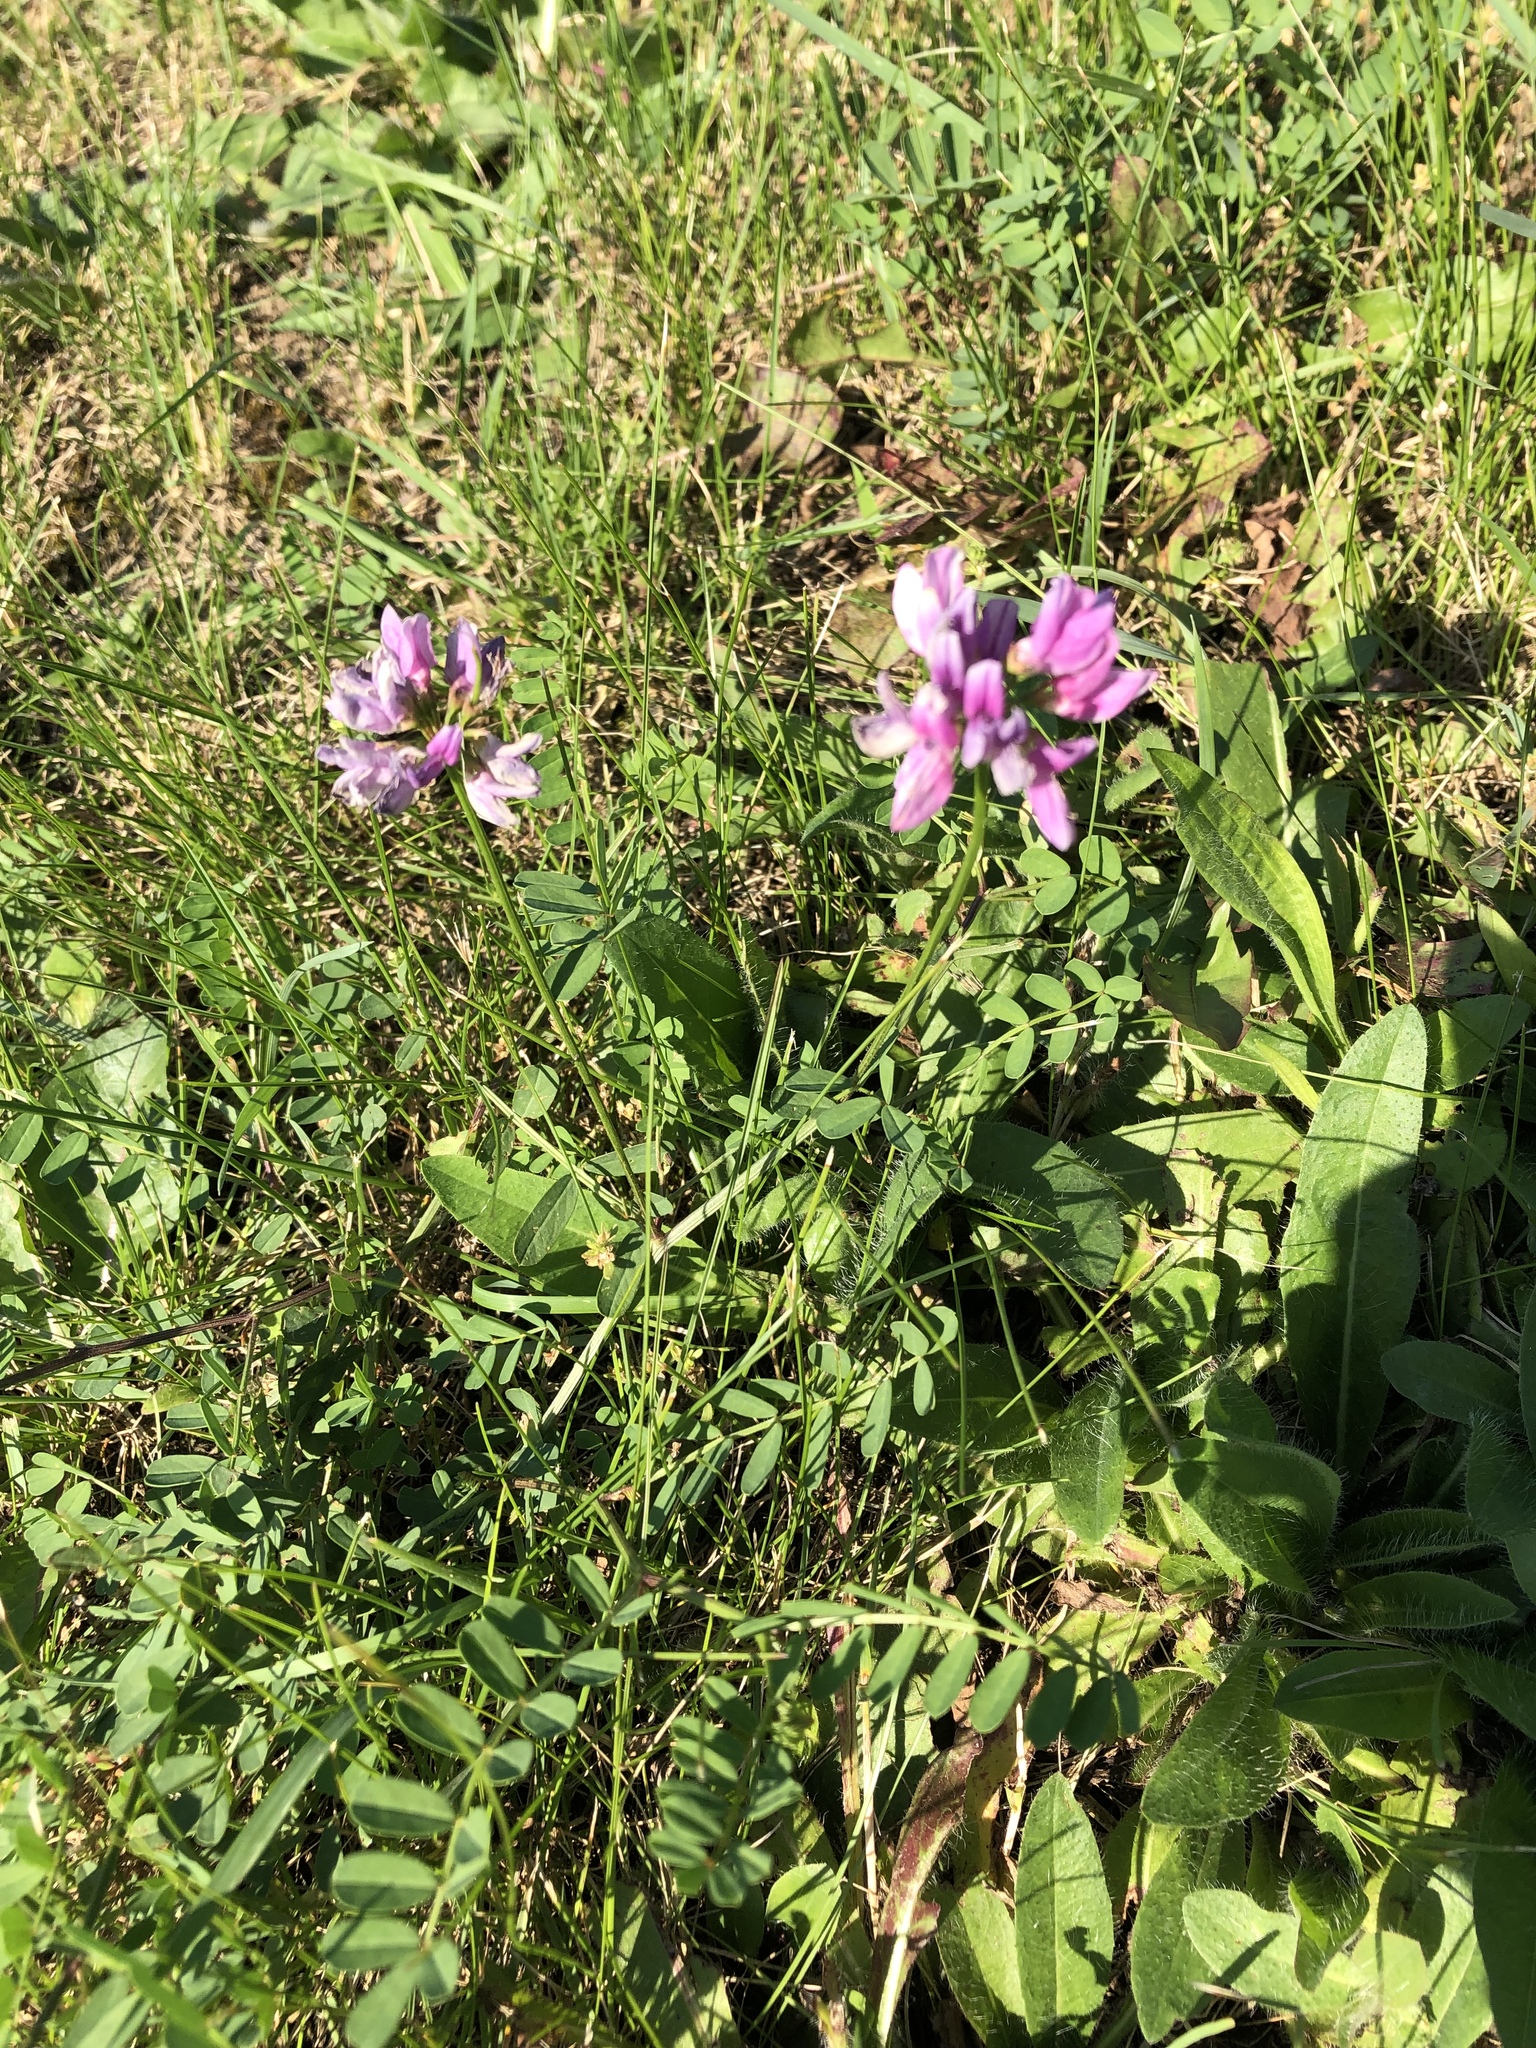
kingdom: Plantae
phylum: Tracheophyta
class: Magnoliopsida
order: Fabales
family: Fabaceae
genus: Coronilla
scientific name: Coronilla varia
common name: Crownvetch
